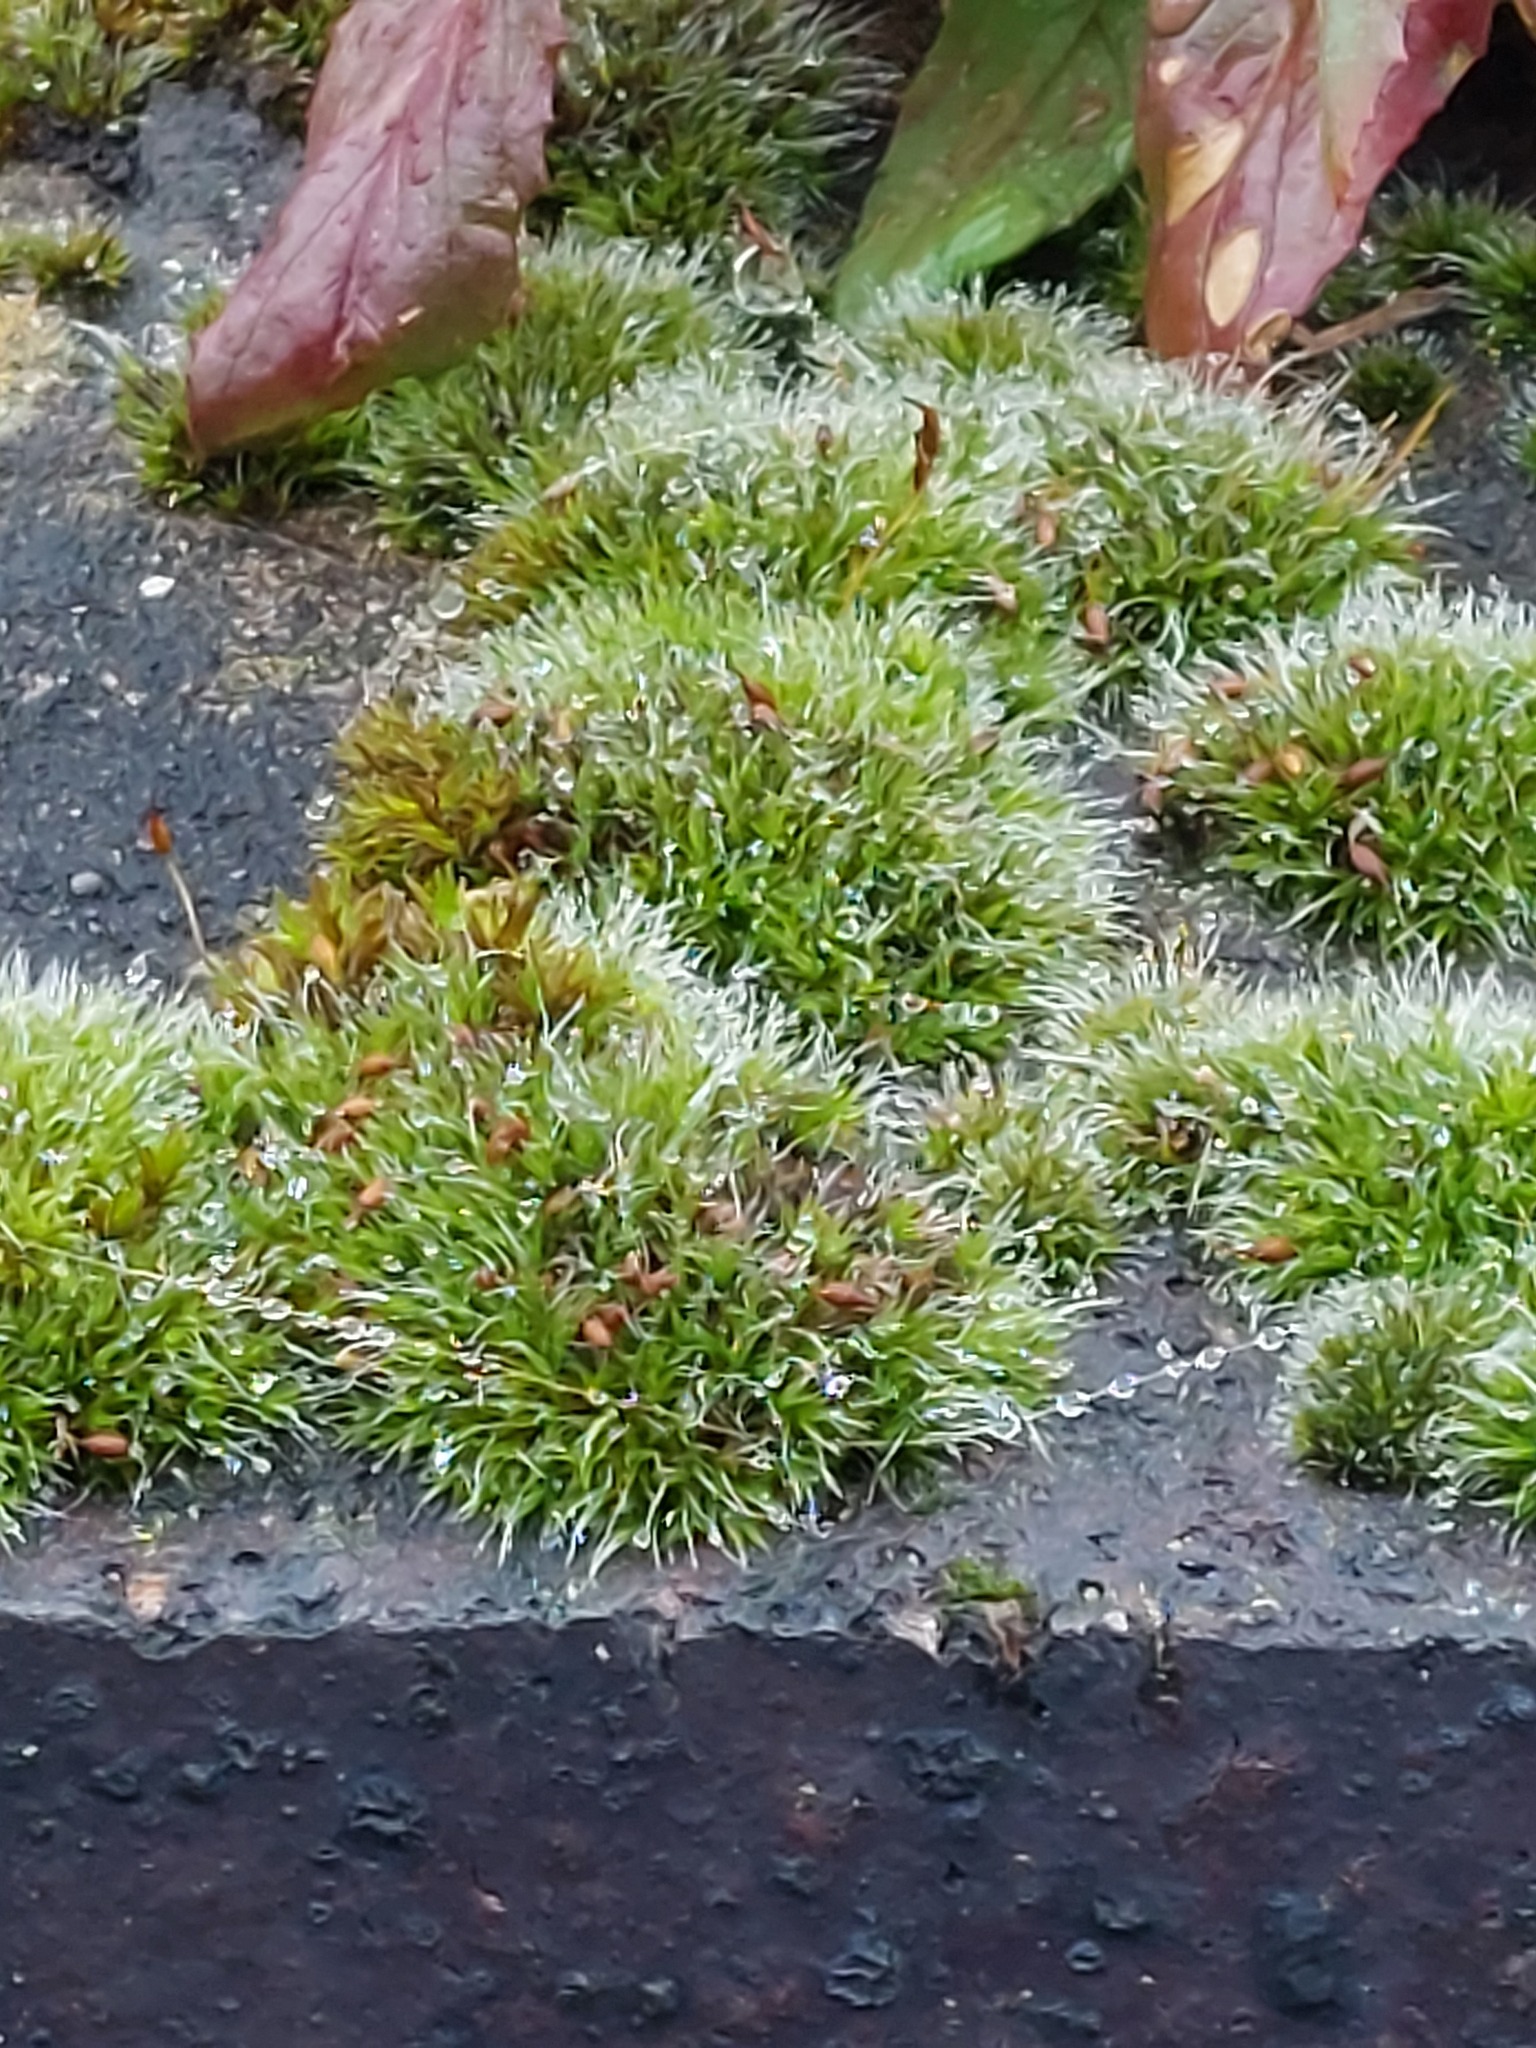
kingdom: Plantae
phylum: Bryophyta
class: Bryopsida
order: Grimmiales
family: Grimmiaceae
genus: Grimmia
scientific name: Grimmia pulvinata
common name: Grey-cushioned grimmia
